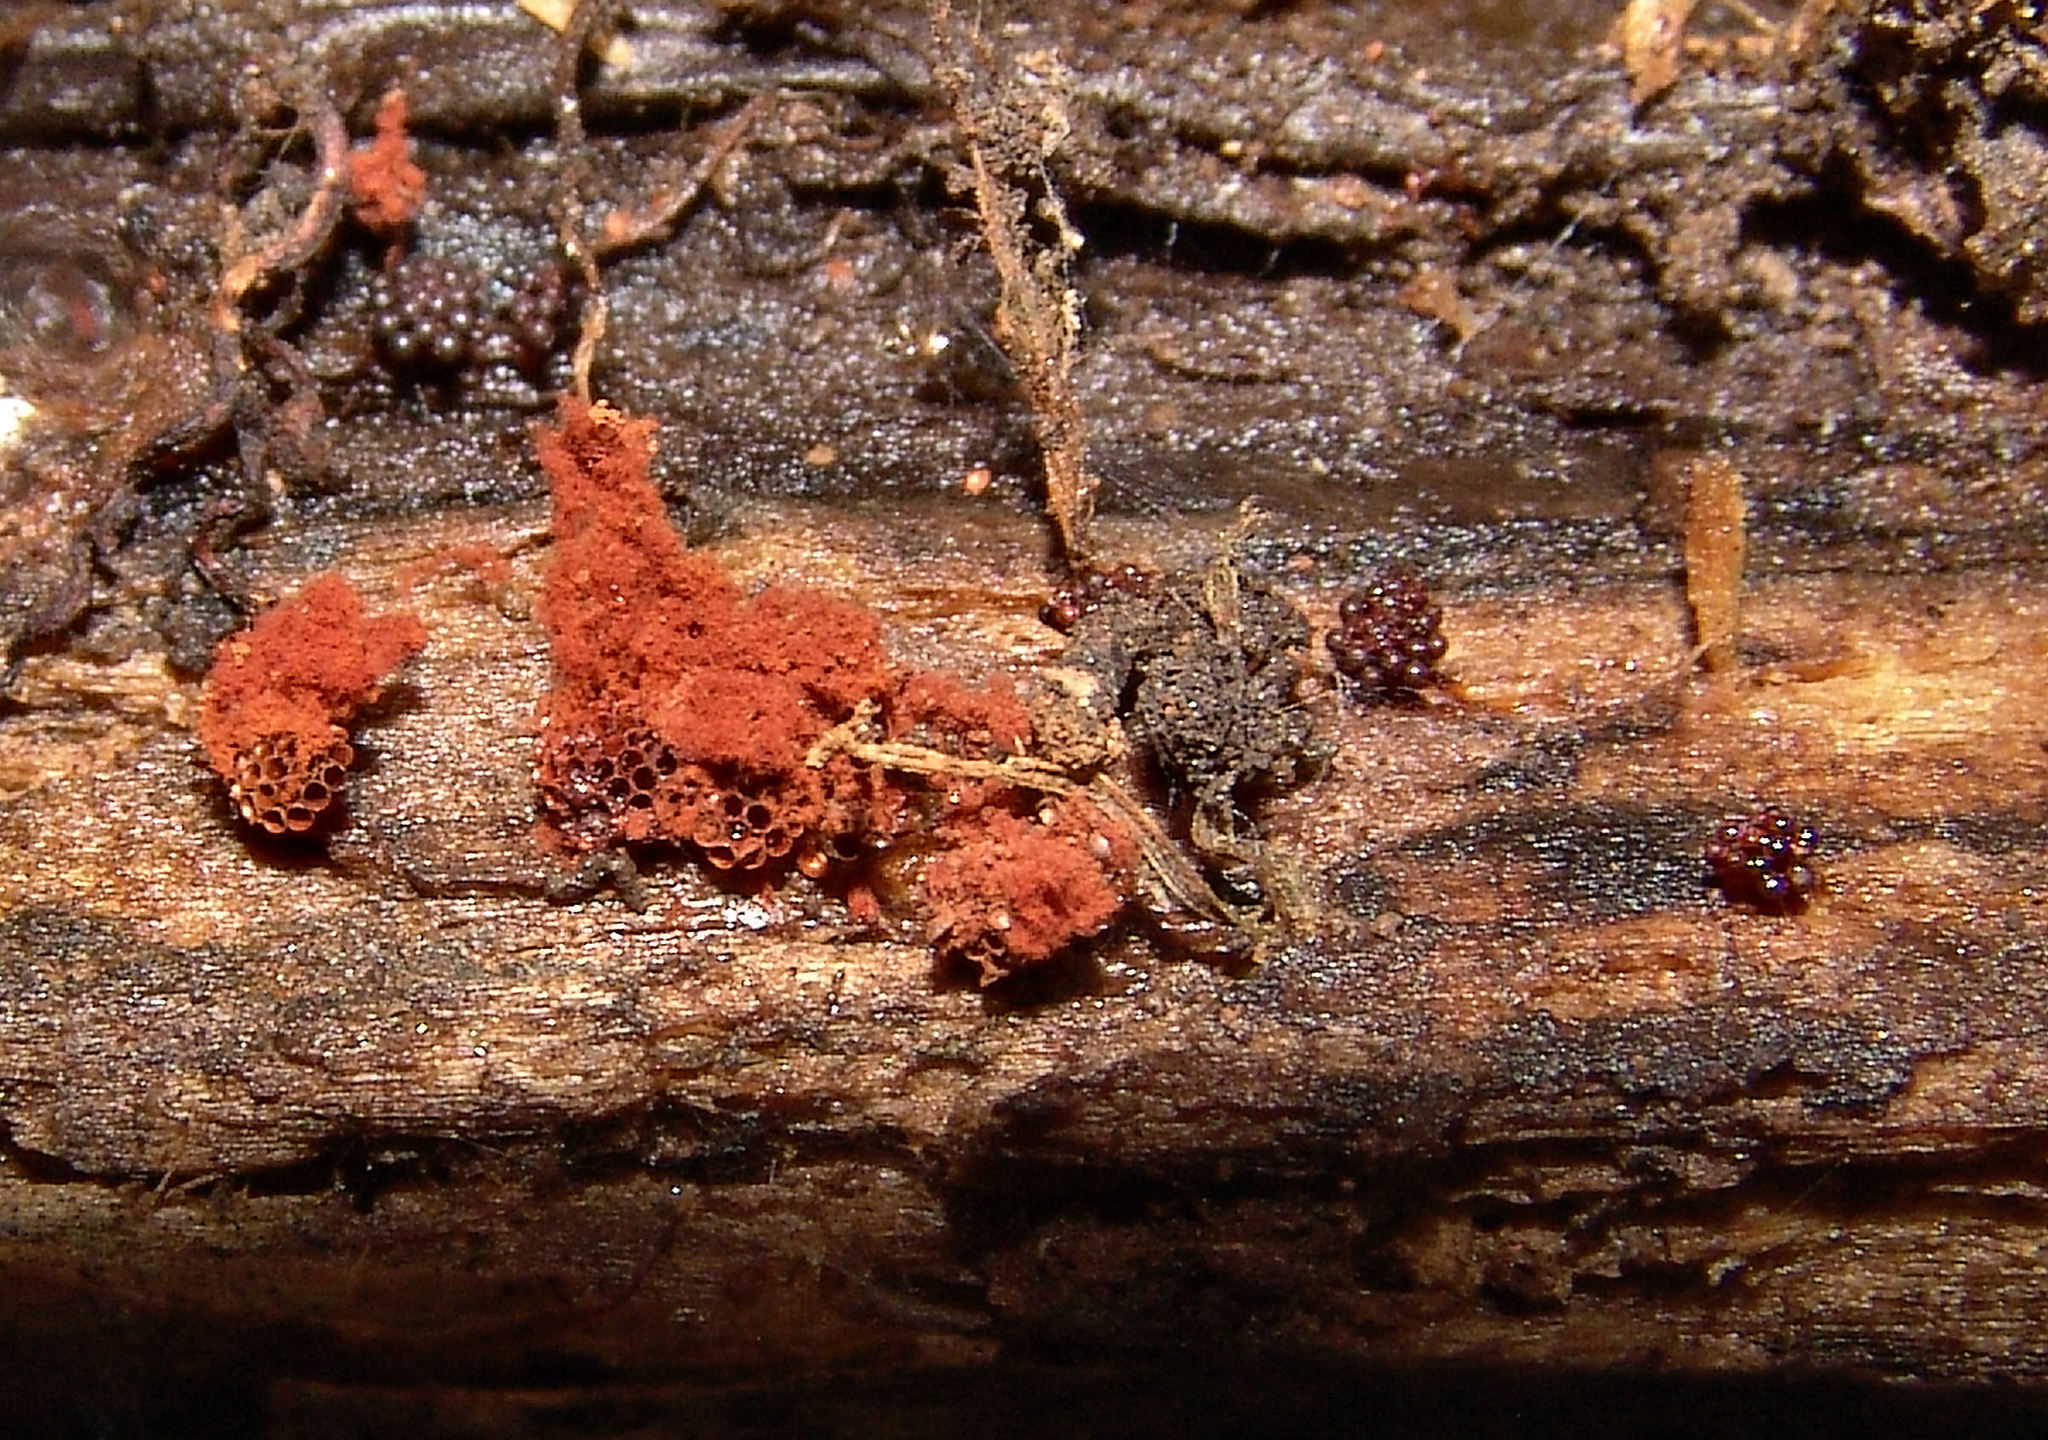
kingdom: Protozoa
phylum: Mycetozoa
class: Myxomycetes
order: Trichiales
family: Trichiaceae
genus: Metatrichia
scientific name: Metatrichia vesparia
